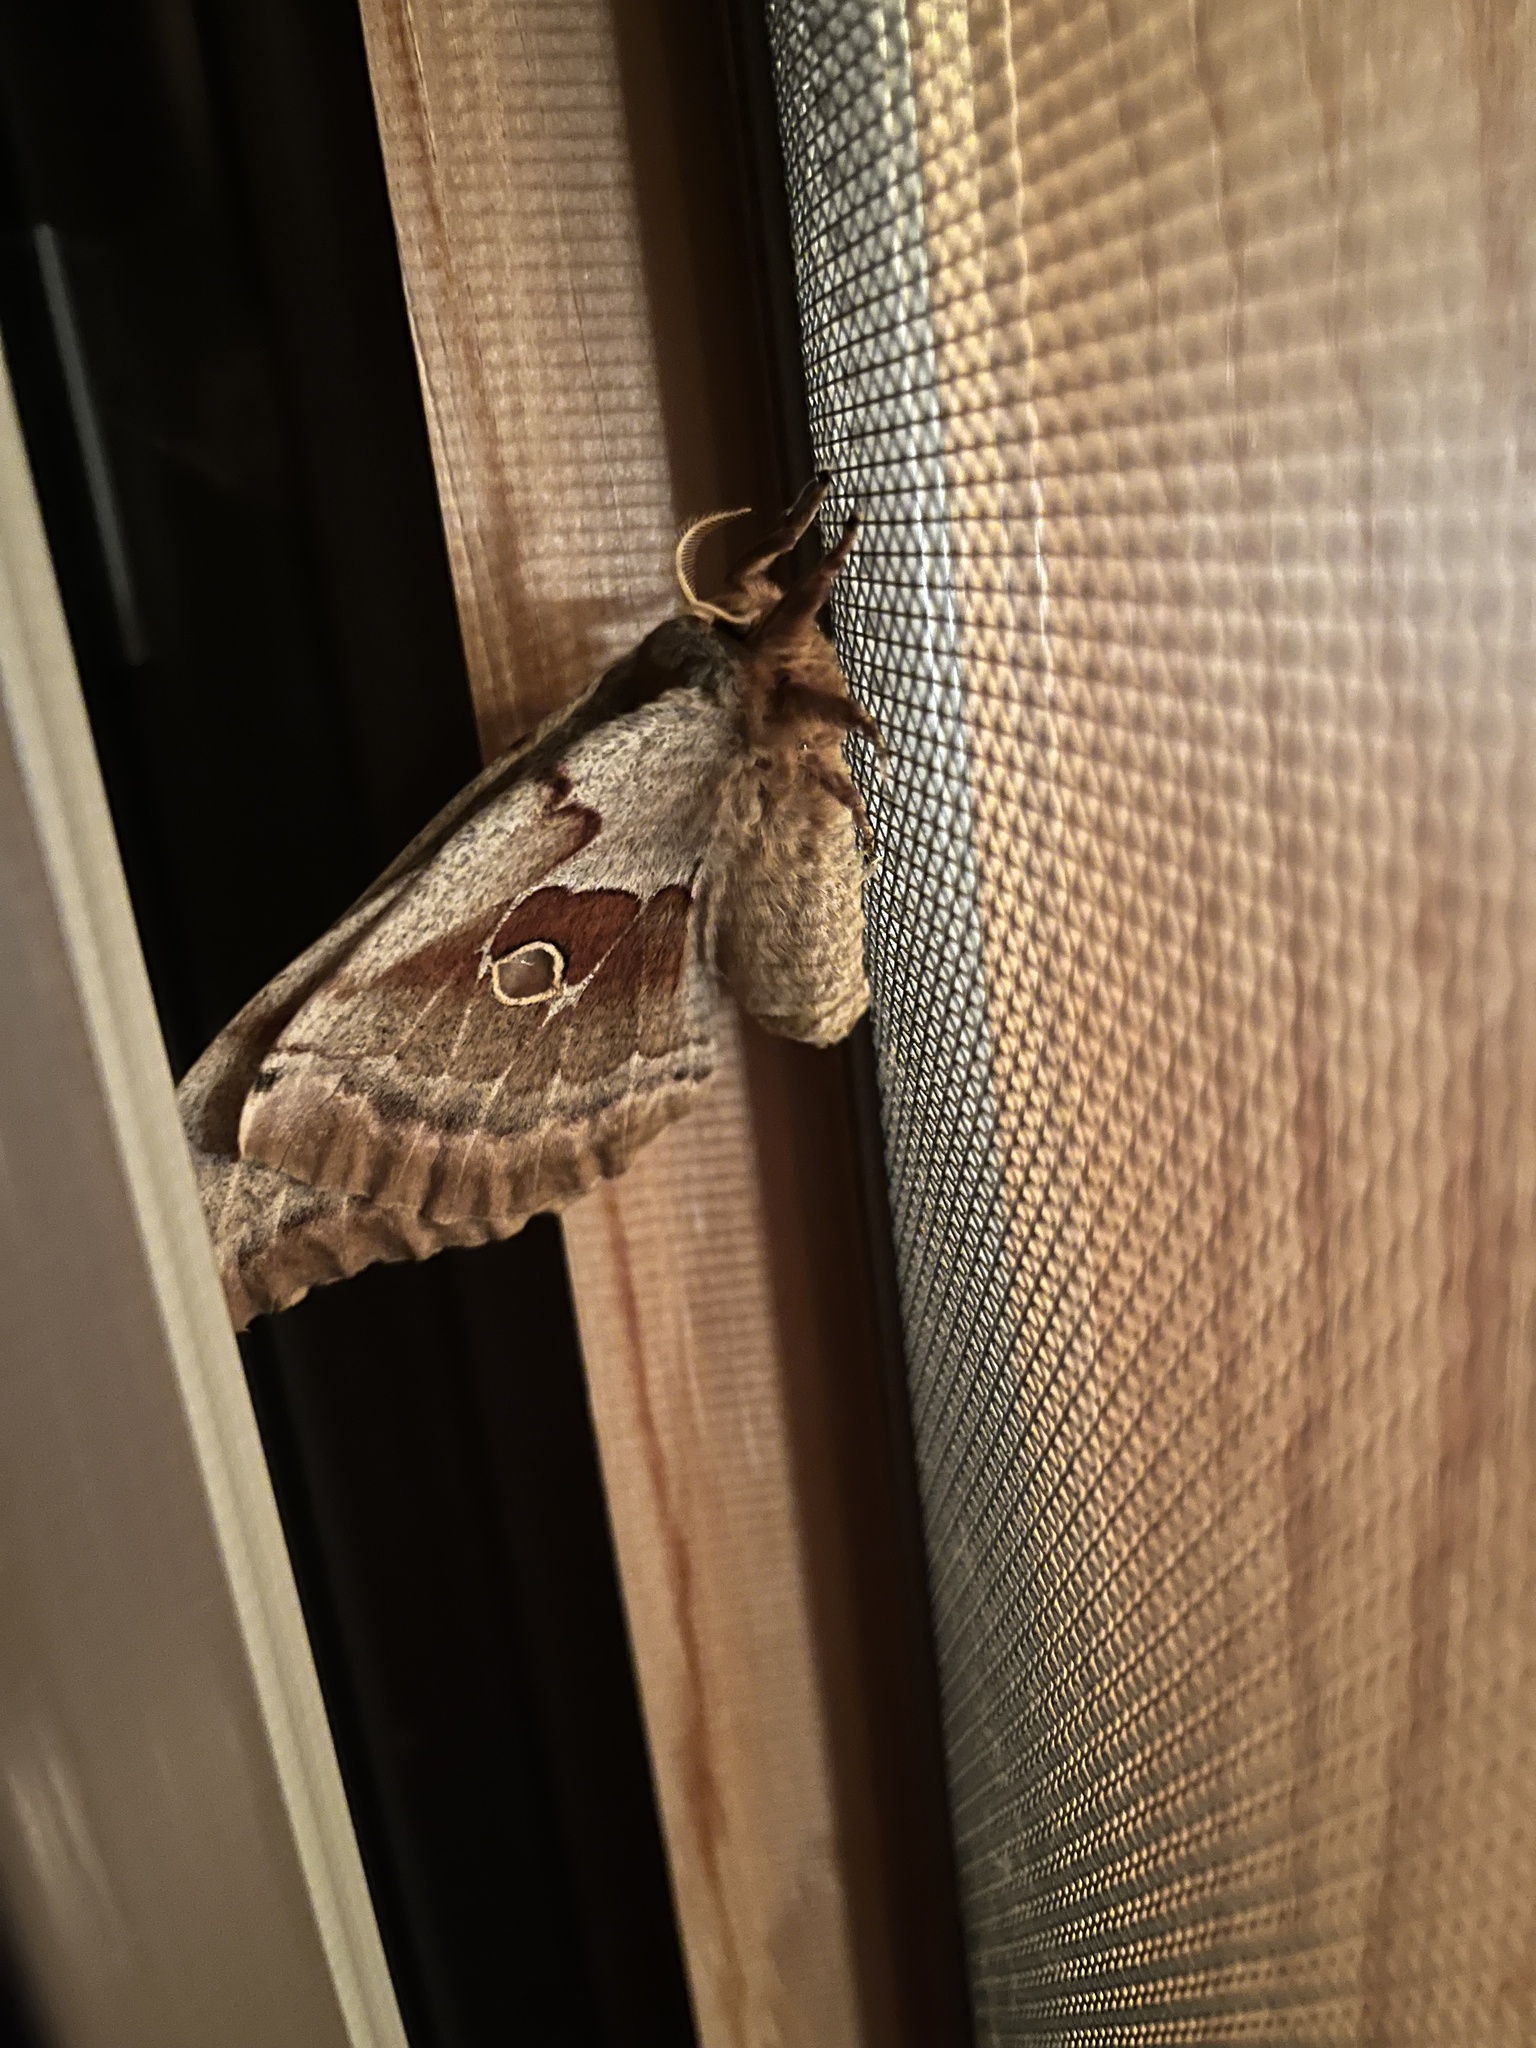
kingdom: Animalia
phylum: Arthropoda
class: Insecta
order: Lepidoptera
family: Saturniidae
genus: Antheraea
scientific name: Antheraea polyphemus
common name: Polyphemus moth
